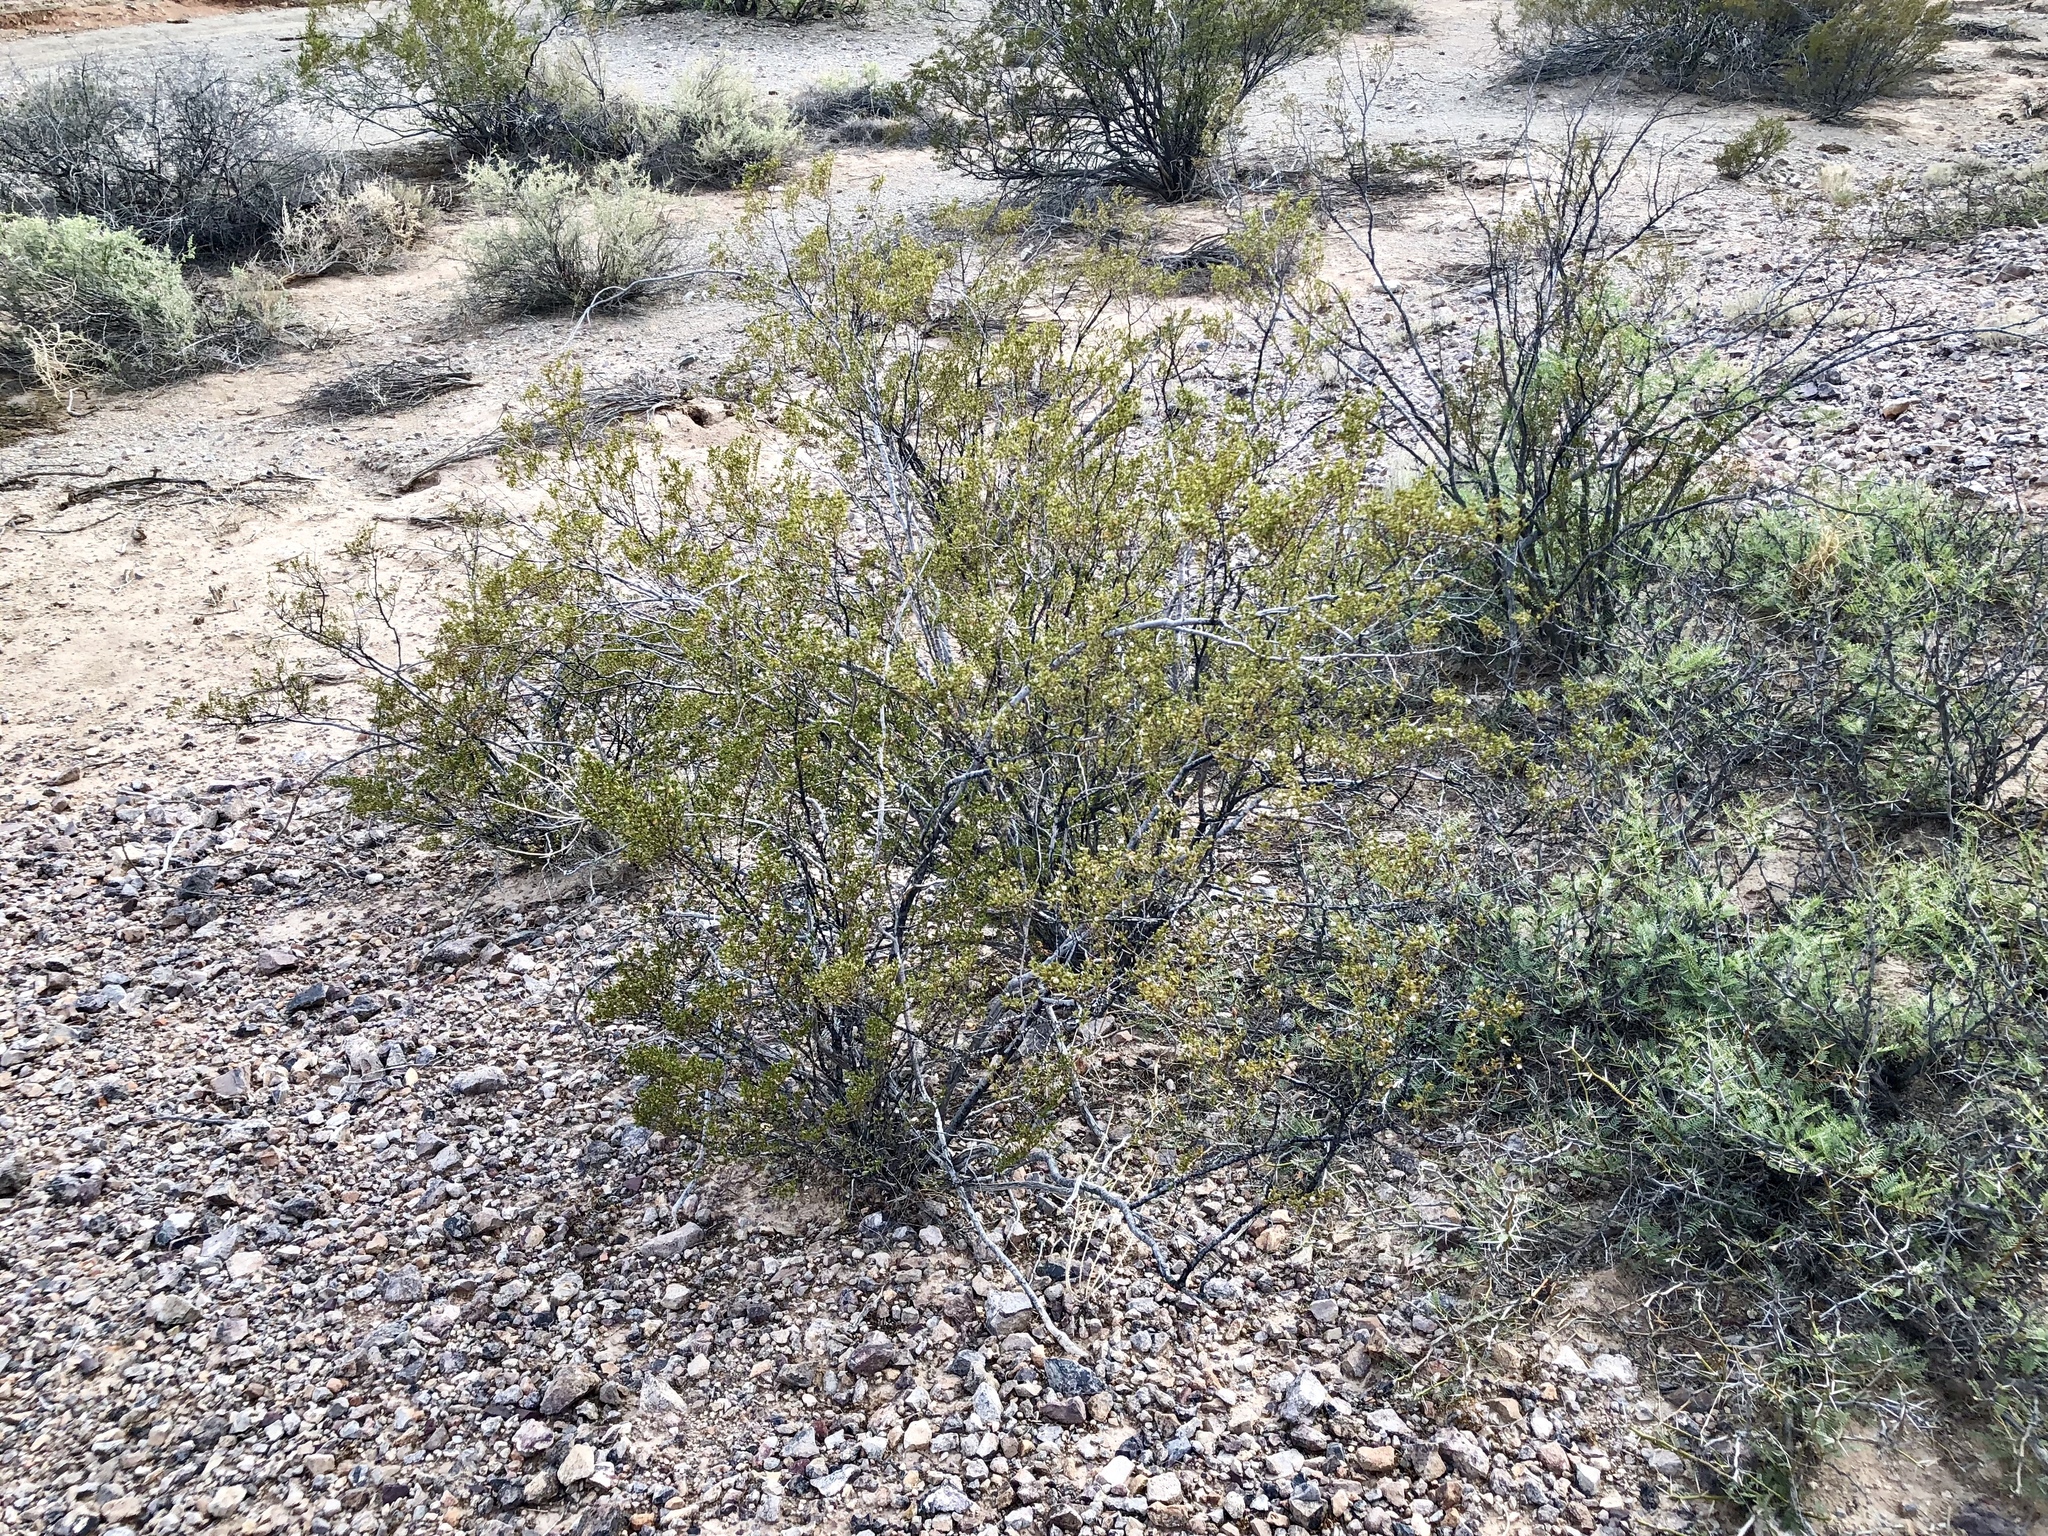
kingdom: Plantae
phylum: Tracheophyta
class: Magnoliopsida
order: Zygophyllales
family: Zygophyllaceae
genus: Larrea
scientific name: Larrea tridentata
